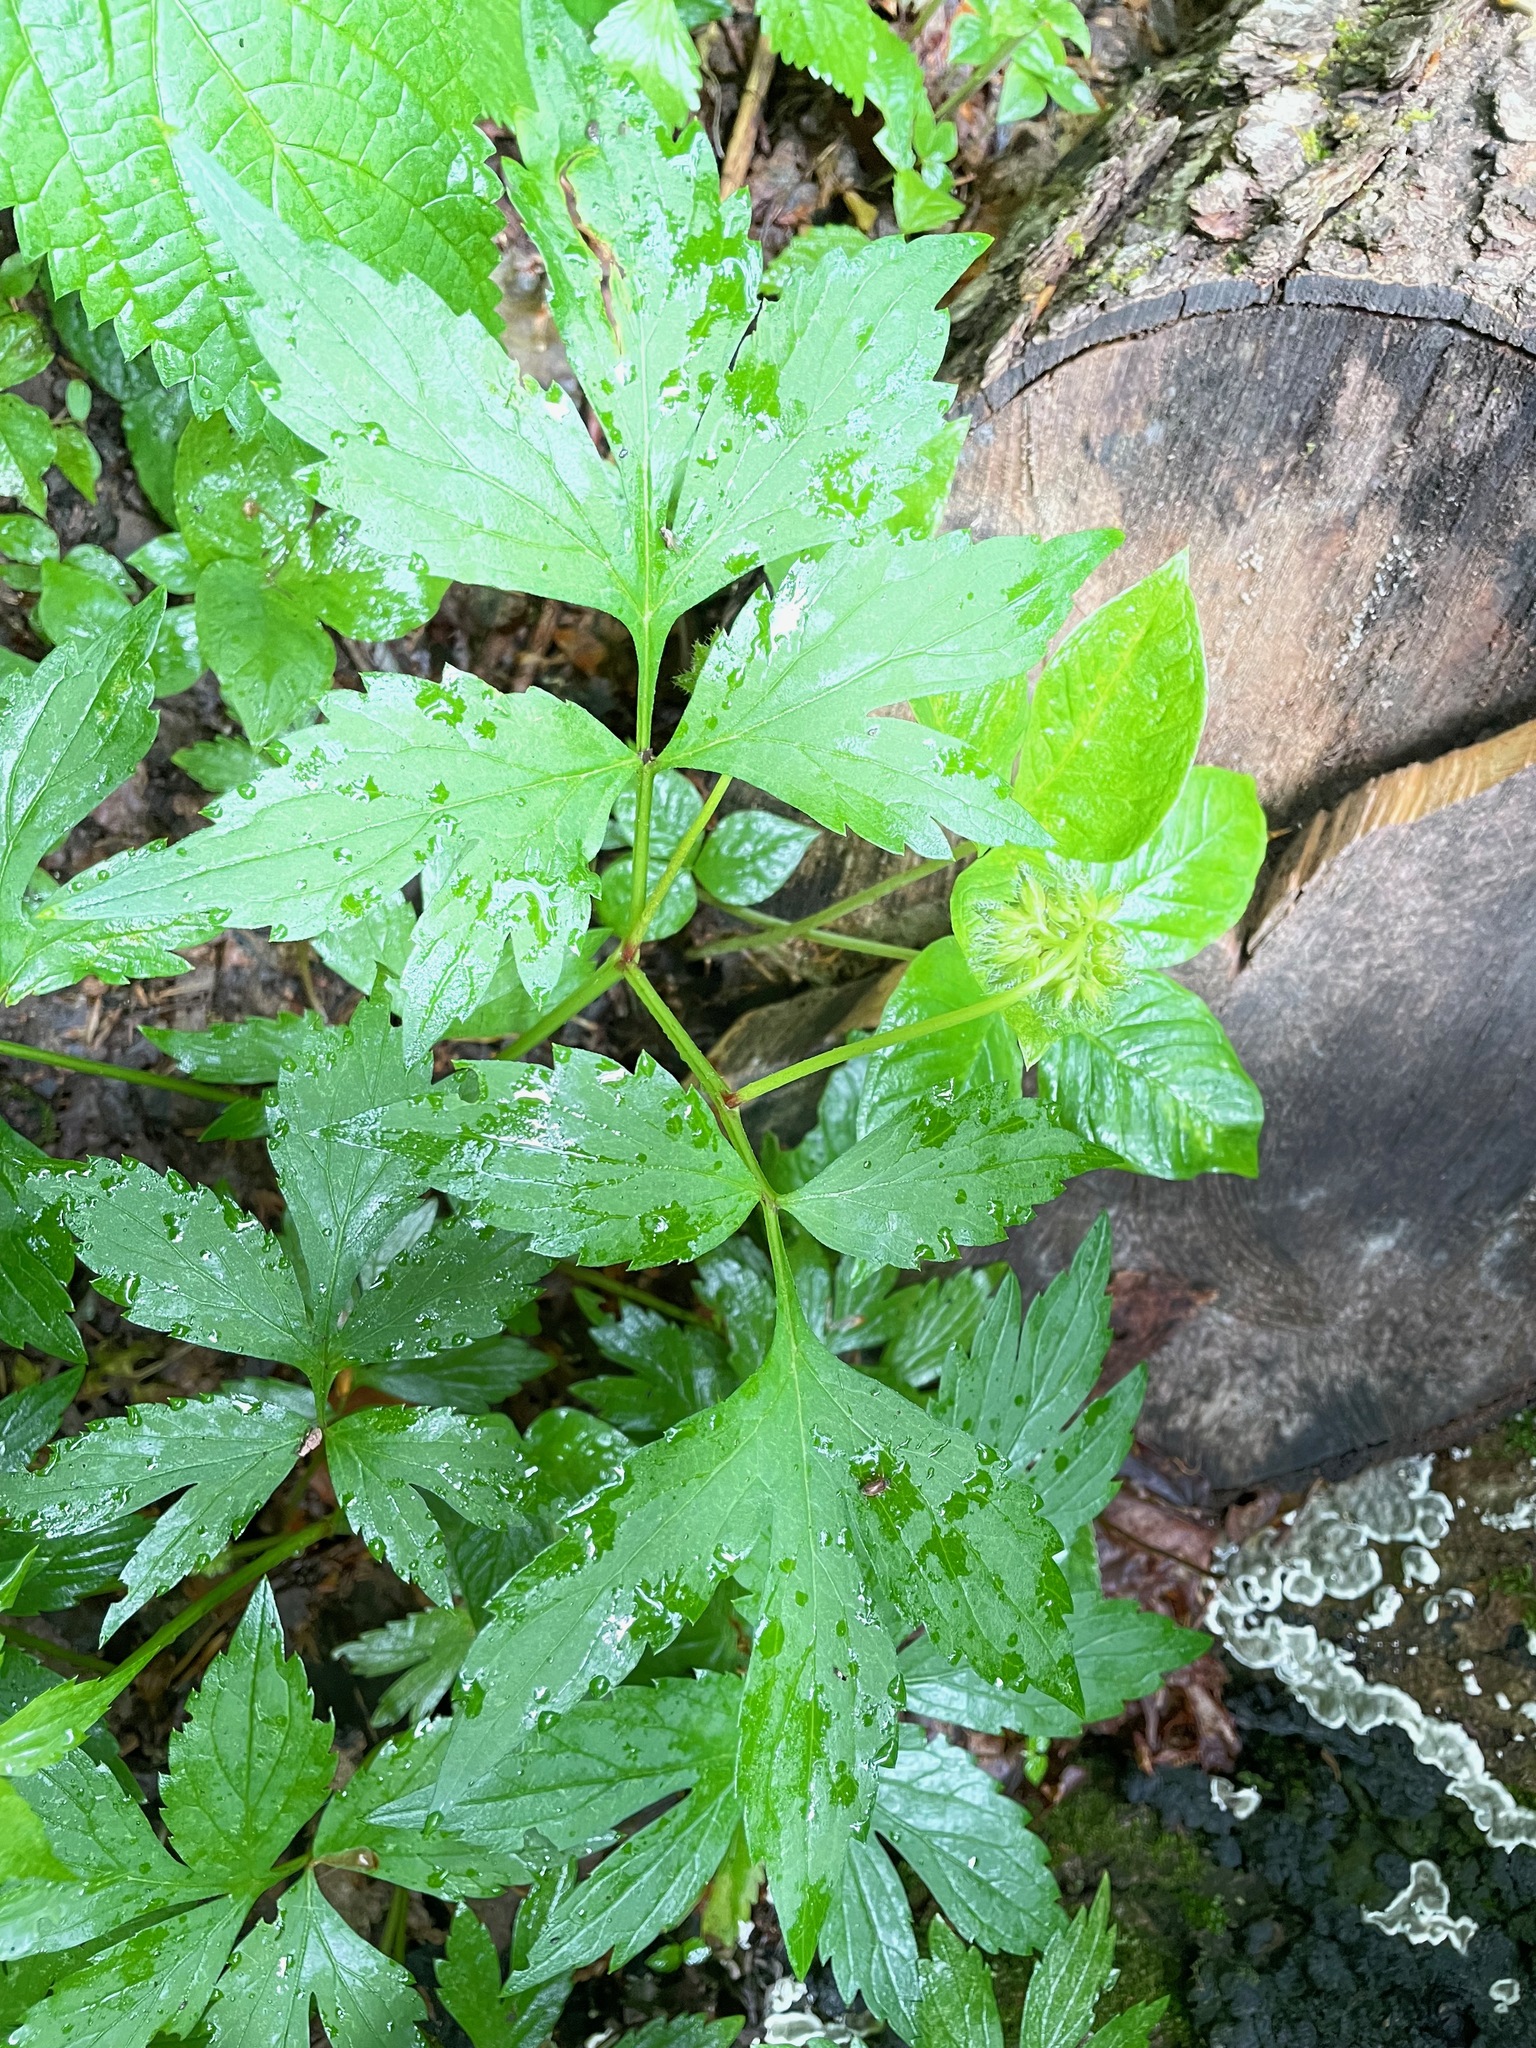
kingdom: Plantae
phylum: Tracheophyta
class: Magnoliopsida
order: Boraginales
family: Hydrophyllaceae
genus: Hydrophyllum
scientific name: Hydrophyllum virginianum
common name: Virginia waterleaf
